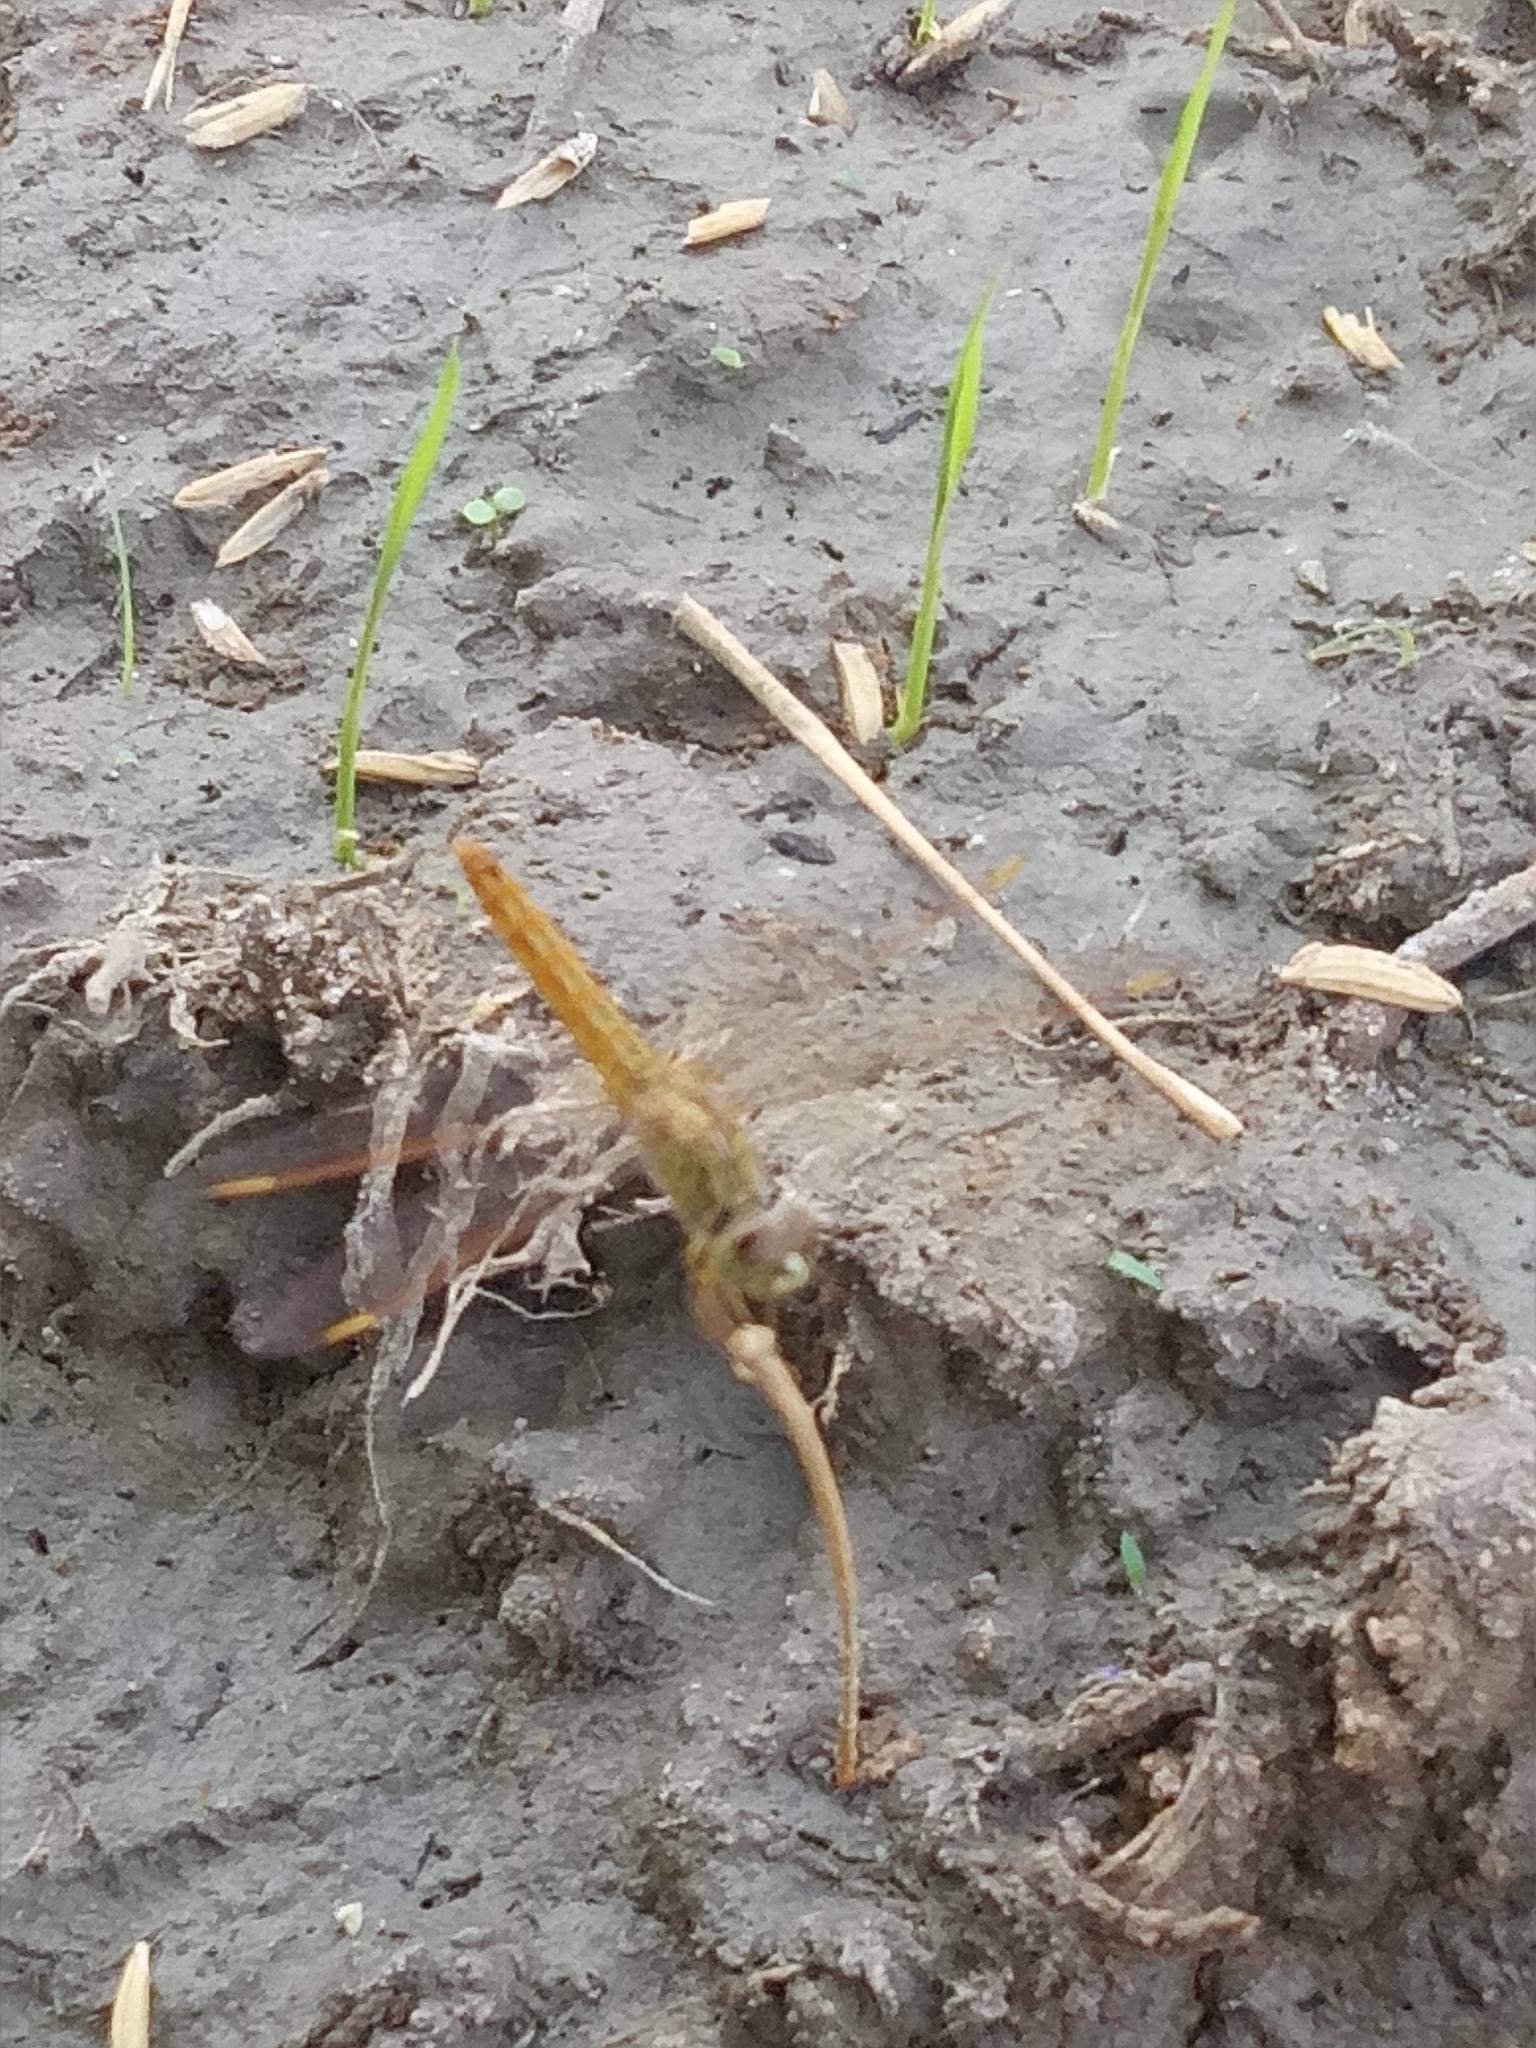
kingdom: Animalia
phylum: Arthropoda
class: Insecta
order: Odonata
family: Libellulidae
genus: Brachythemis
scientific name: Brachythemis contaminata
